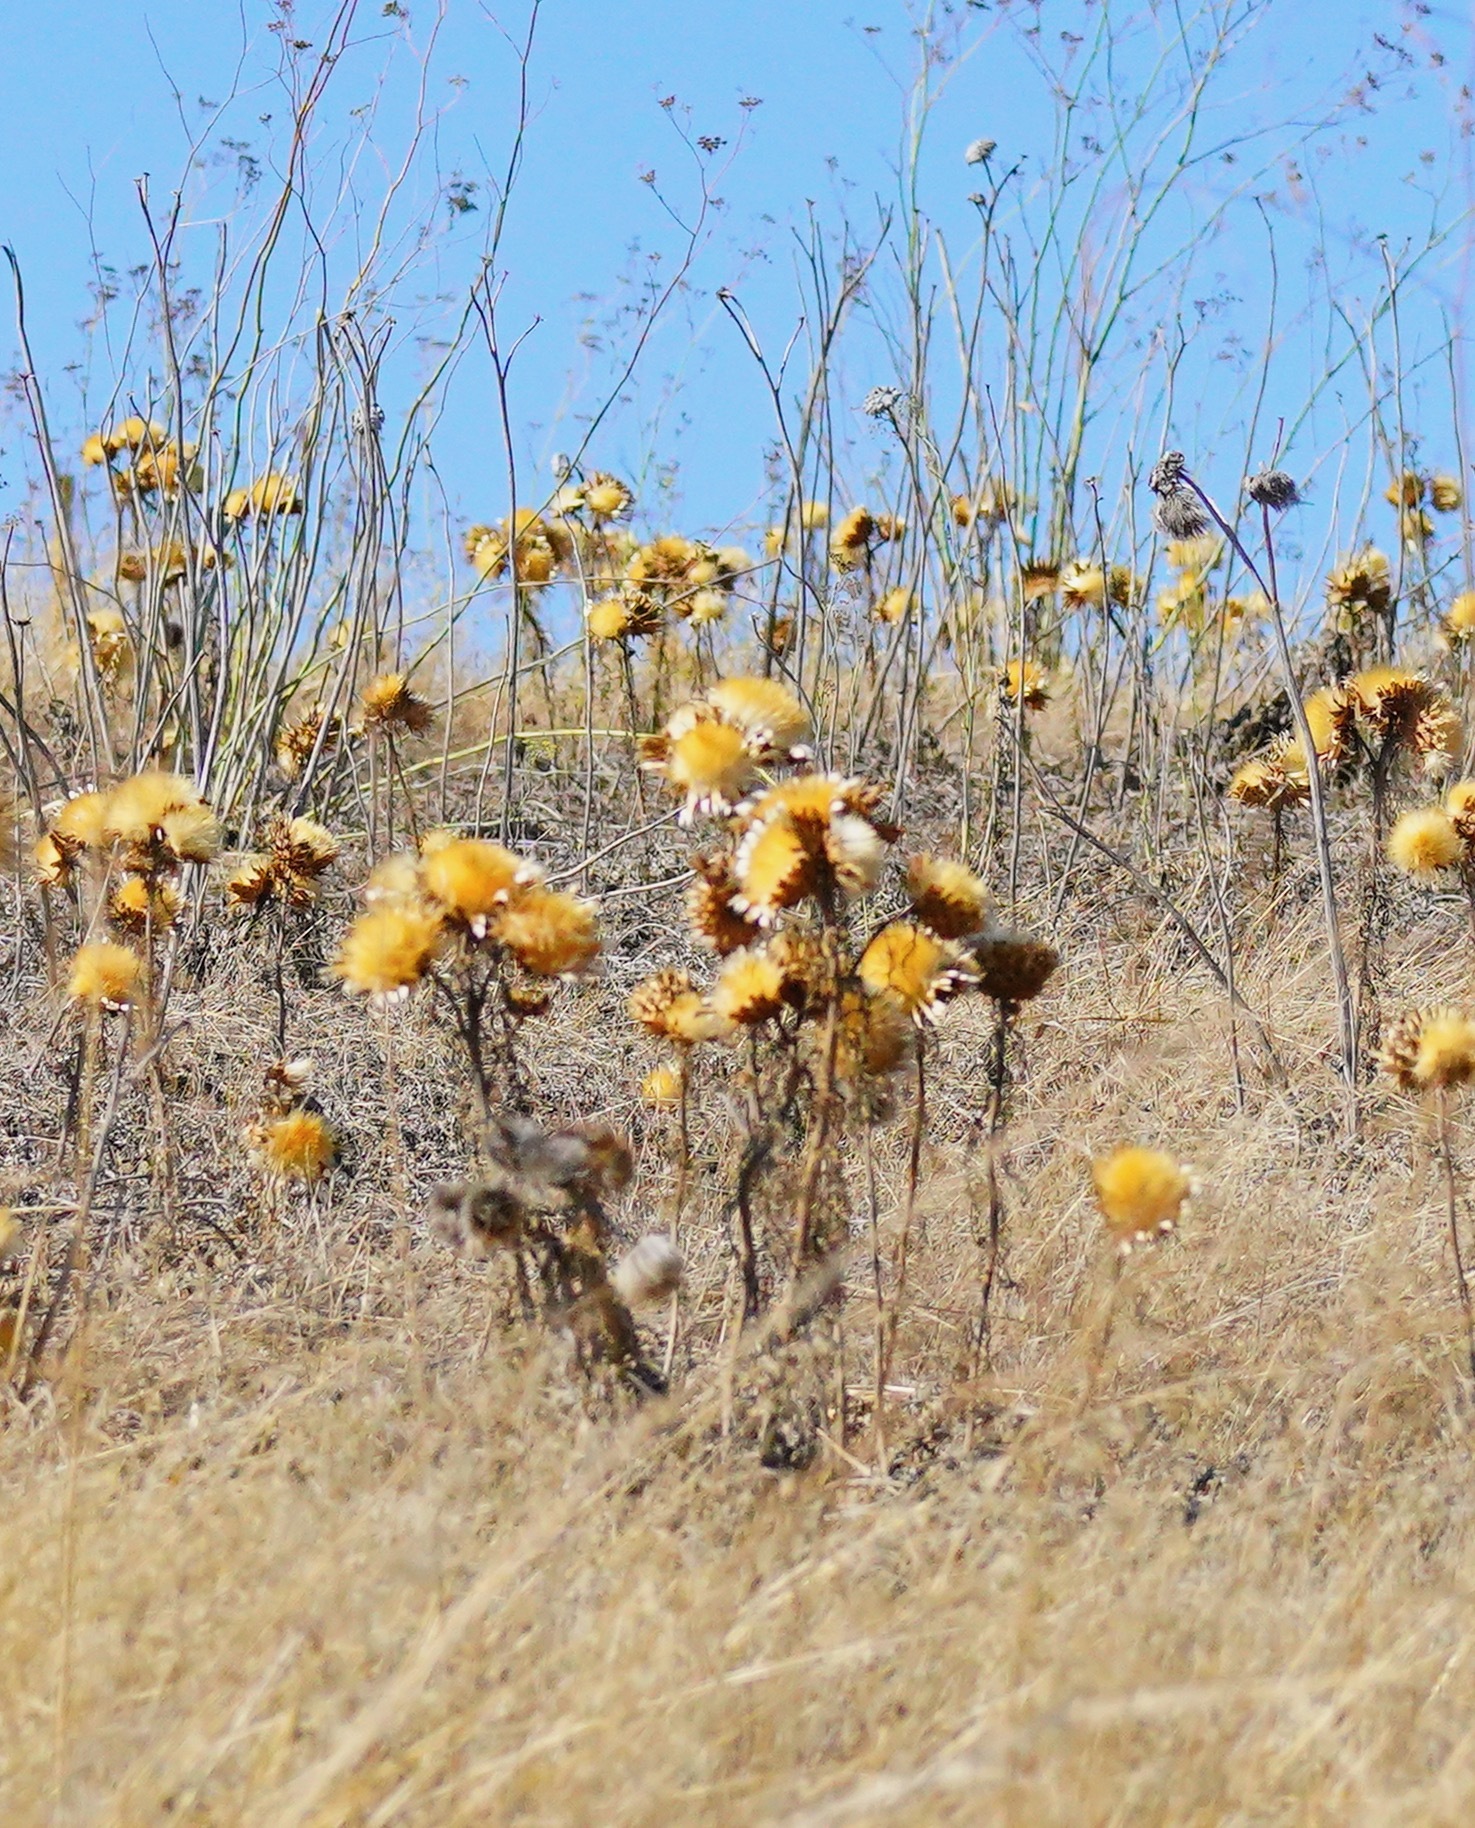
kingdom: Plantae
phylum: Tracheophyta
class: Magnoliopsida
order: Asterales
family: Asteraceae
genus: Cynara
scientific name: Cynara cardunculus
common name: Globe artichoke
